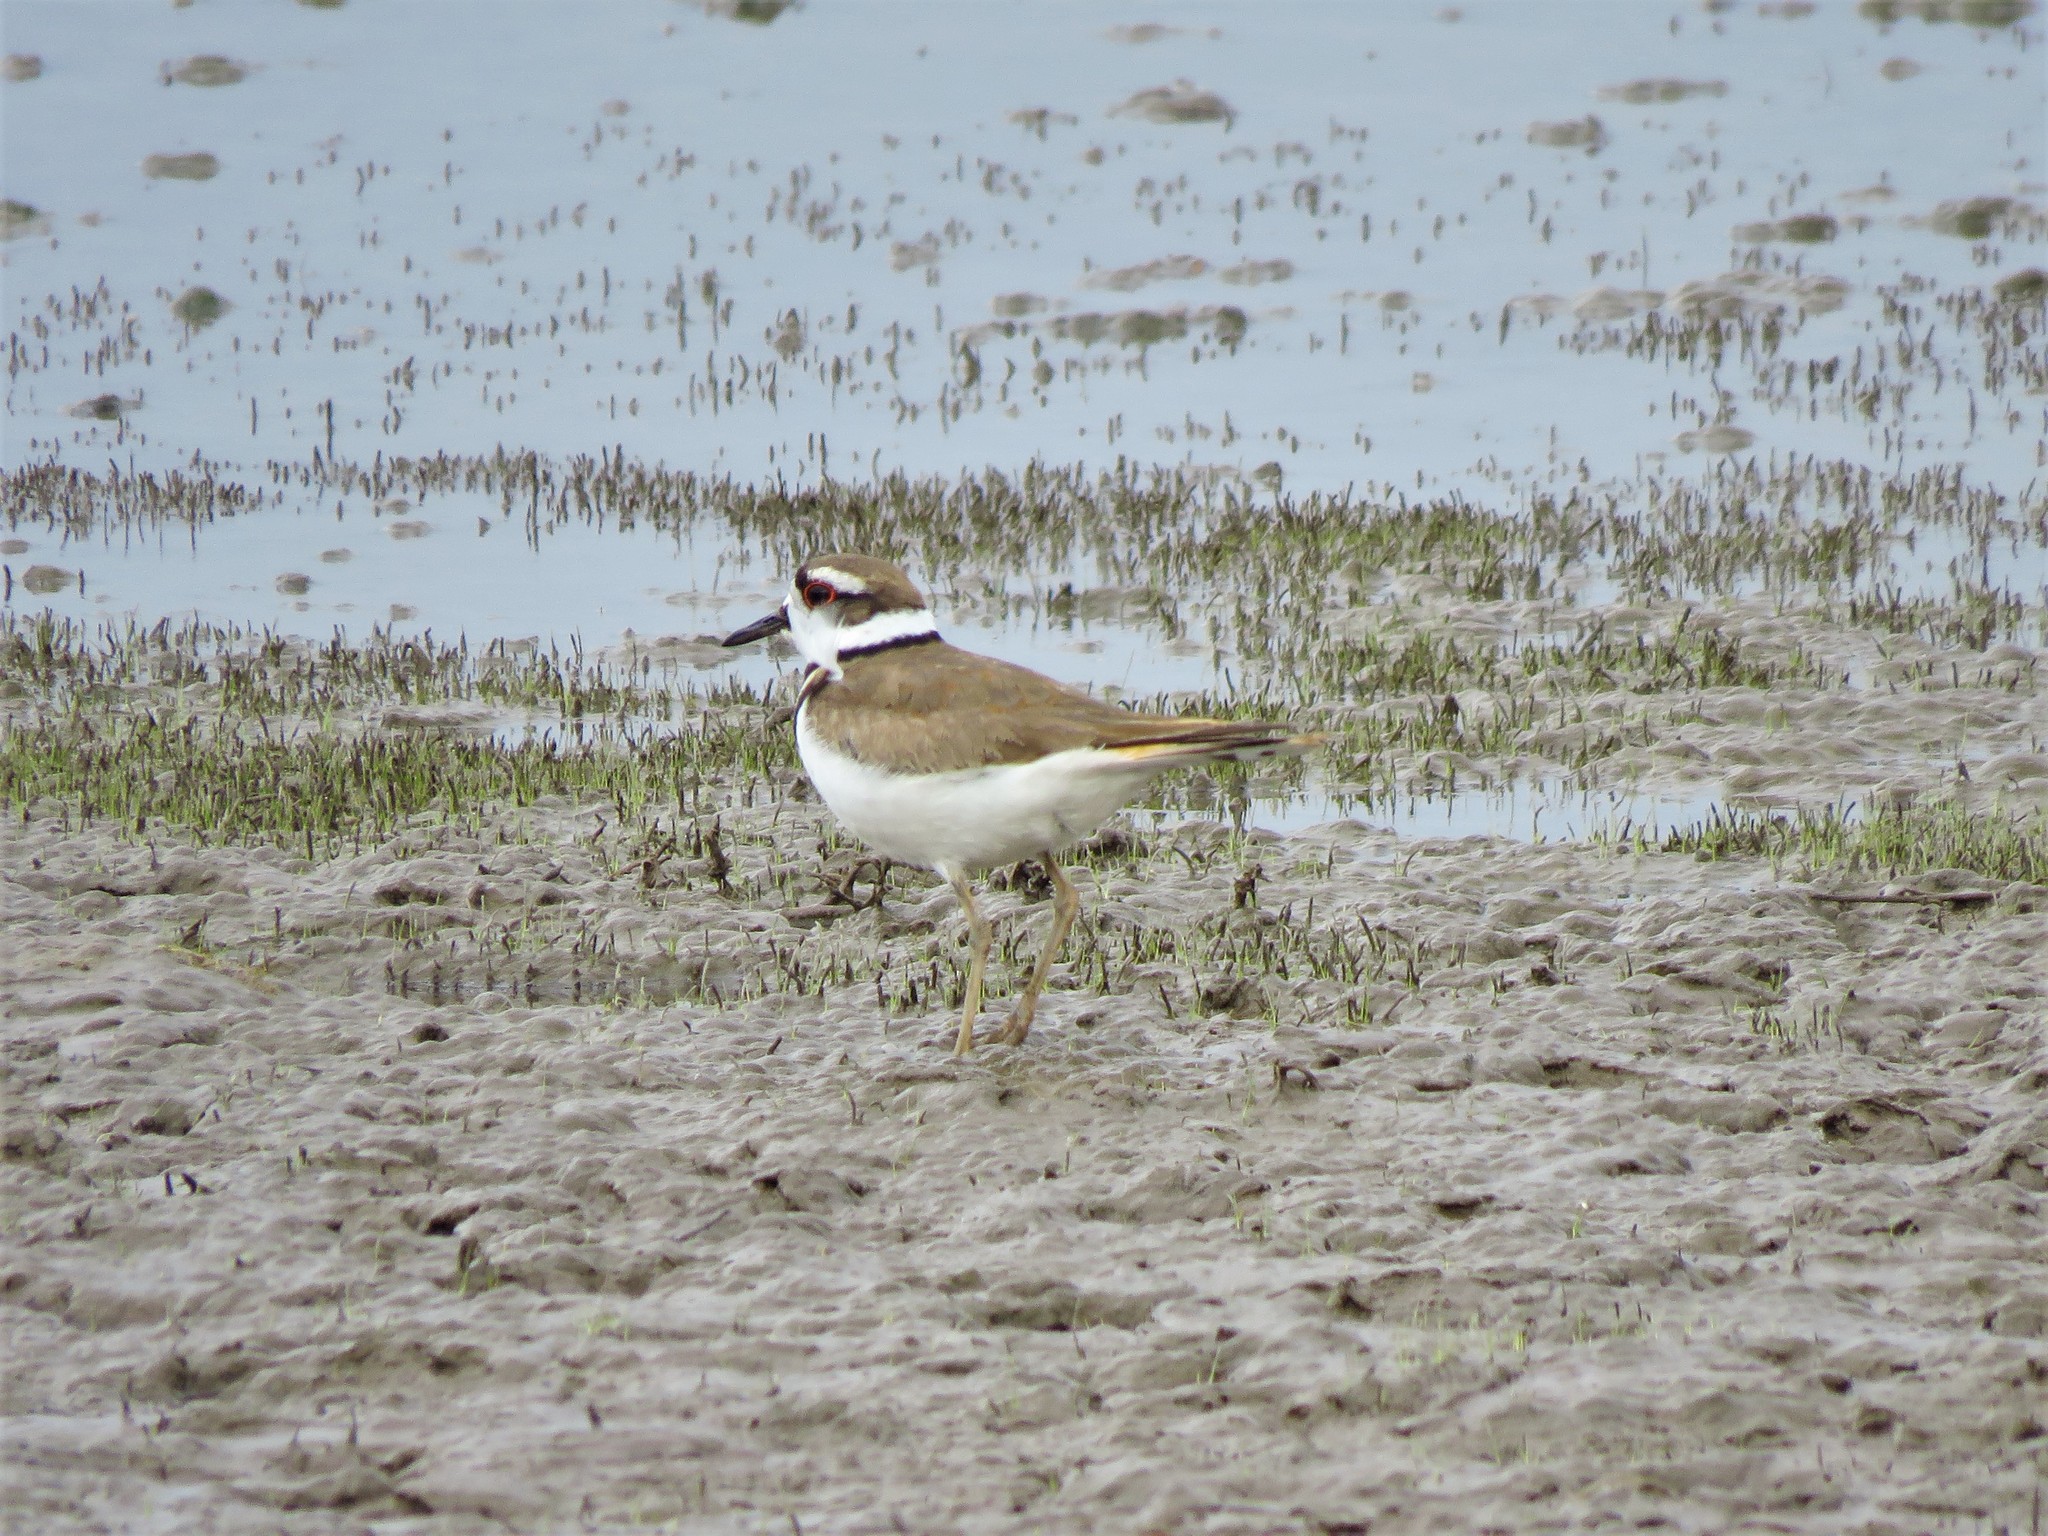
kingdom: Animalia
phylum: Chordata
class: Aves
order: Charadriiformes
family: Charadriidae
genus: Charadrius
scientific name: Charadrius vociferus
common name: Killdeer
